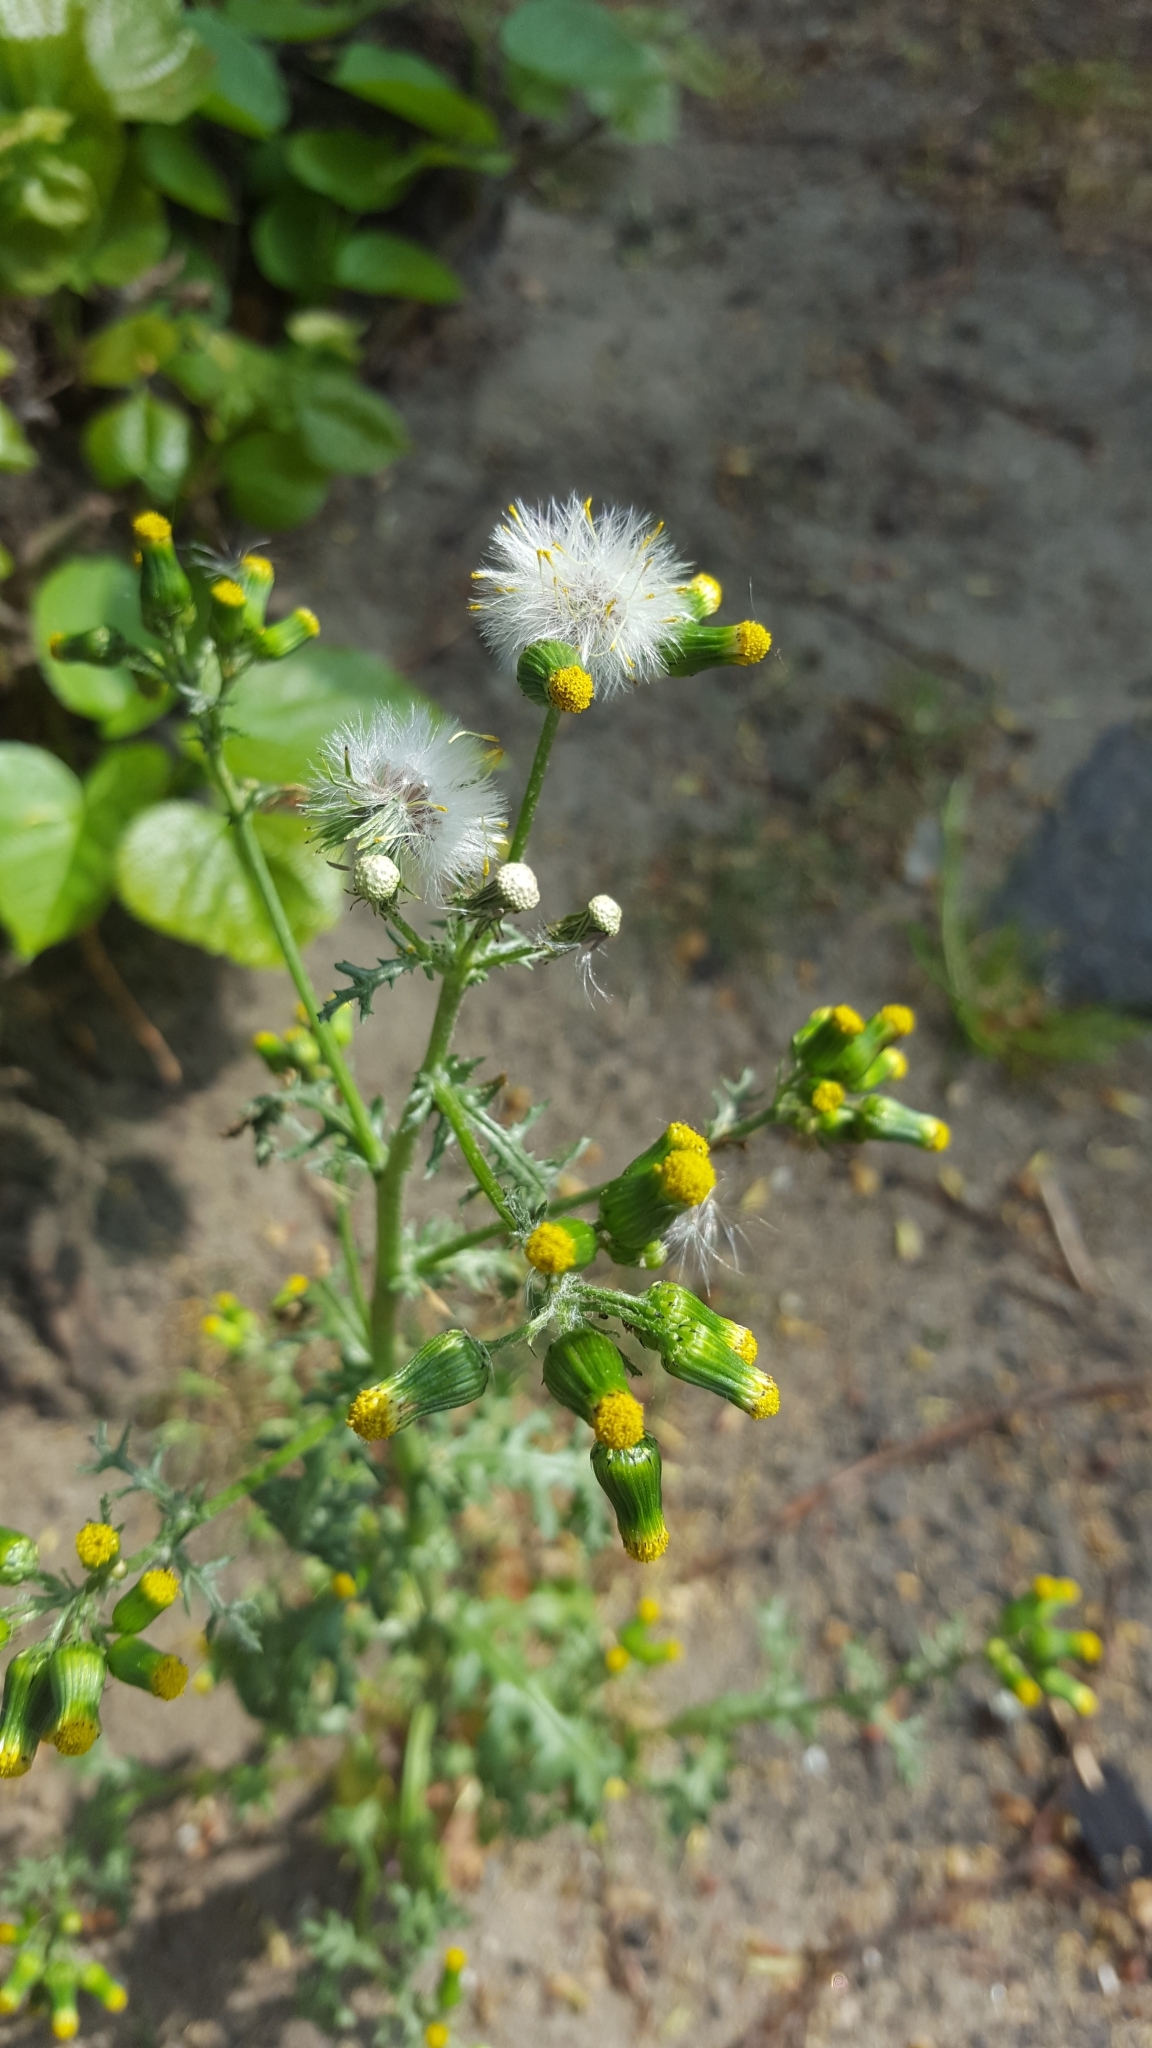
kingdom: Plantae
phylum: Tracheophyta
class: Magnoliopsida
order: Asterales
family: Asteraceae
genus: Senecio
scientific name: Senecio vulgaris
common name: Old-man-in-the-spring
